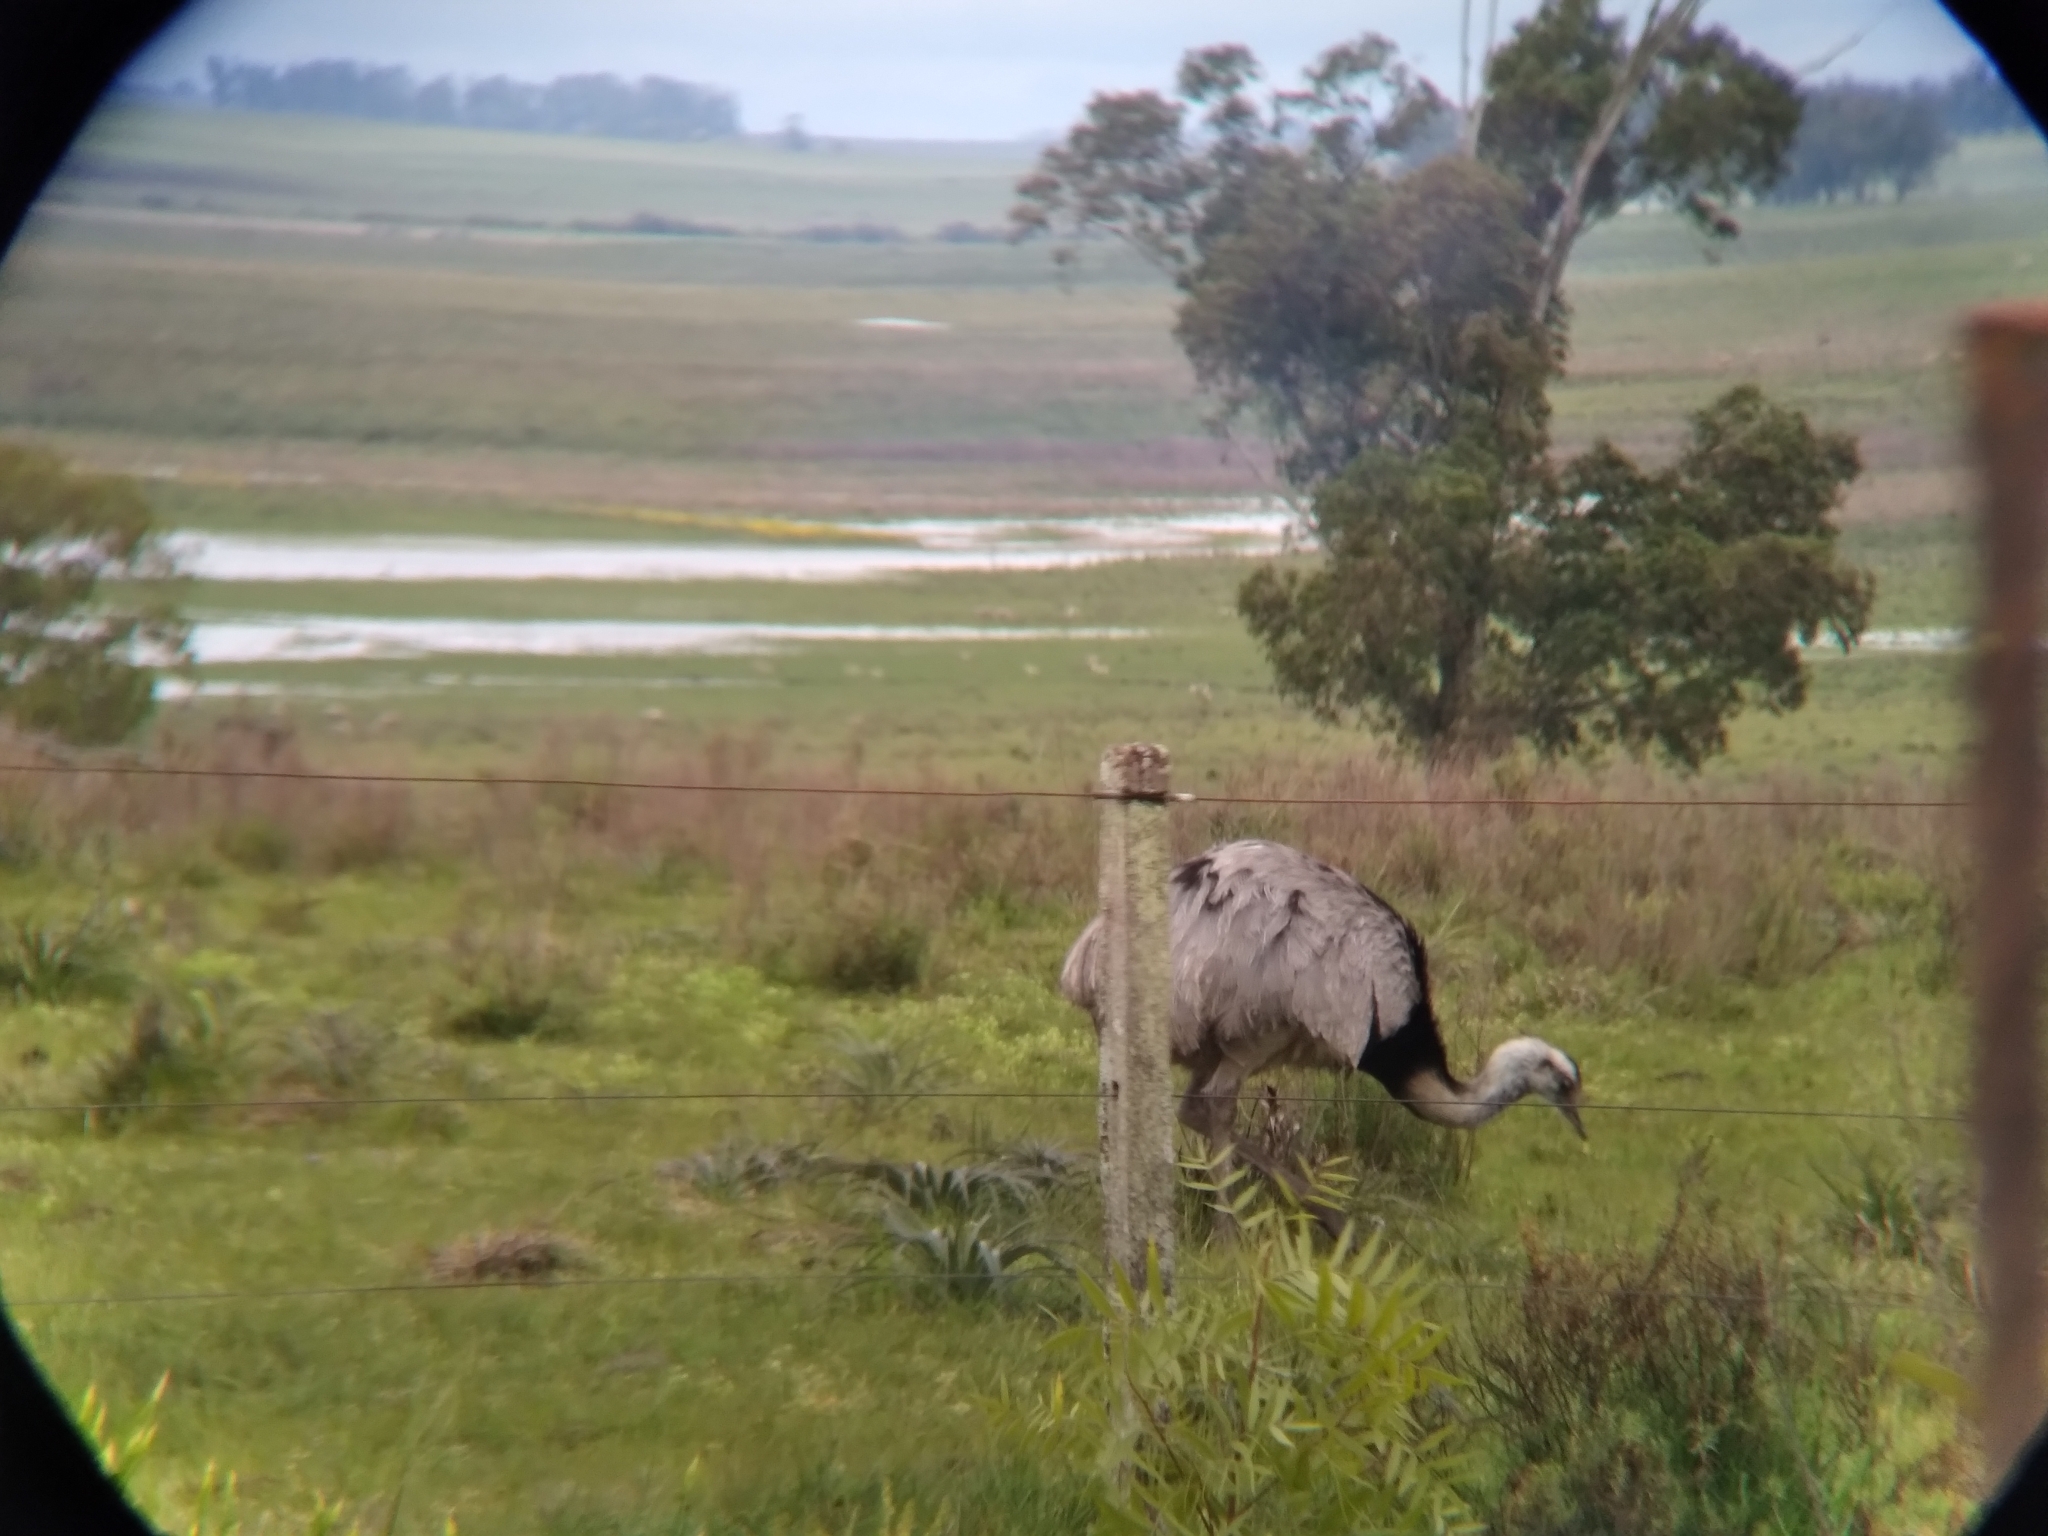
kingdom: Animalia
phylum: Chordata
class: Aves
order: Rheiformes
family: Rheidae
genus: Rhea
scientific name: Rhea americana
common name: Greater rhea
